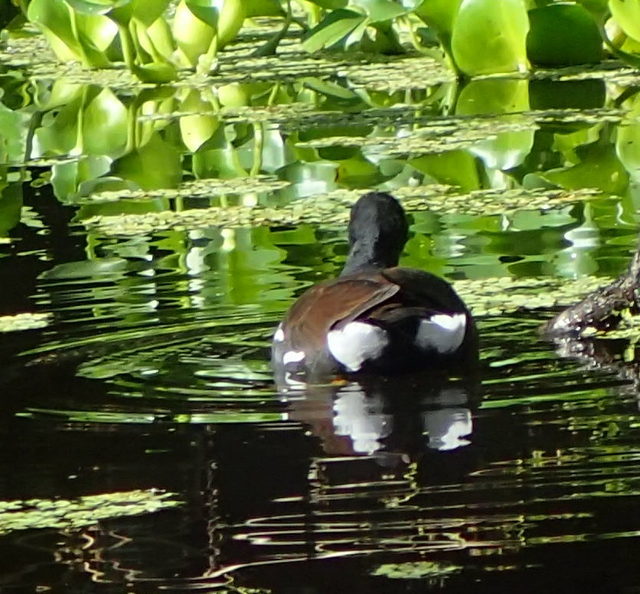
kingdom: Animalia
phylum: Chordata
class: Aves
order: Gruiformes
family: Rallidae
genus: Gallinula
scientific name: Gallinula chloropus
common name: Common moorhen
